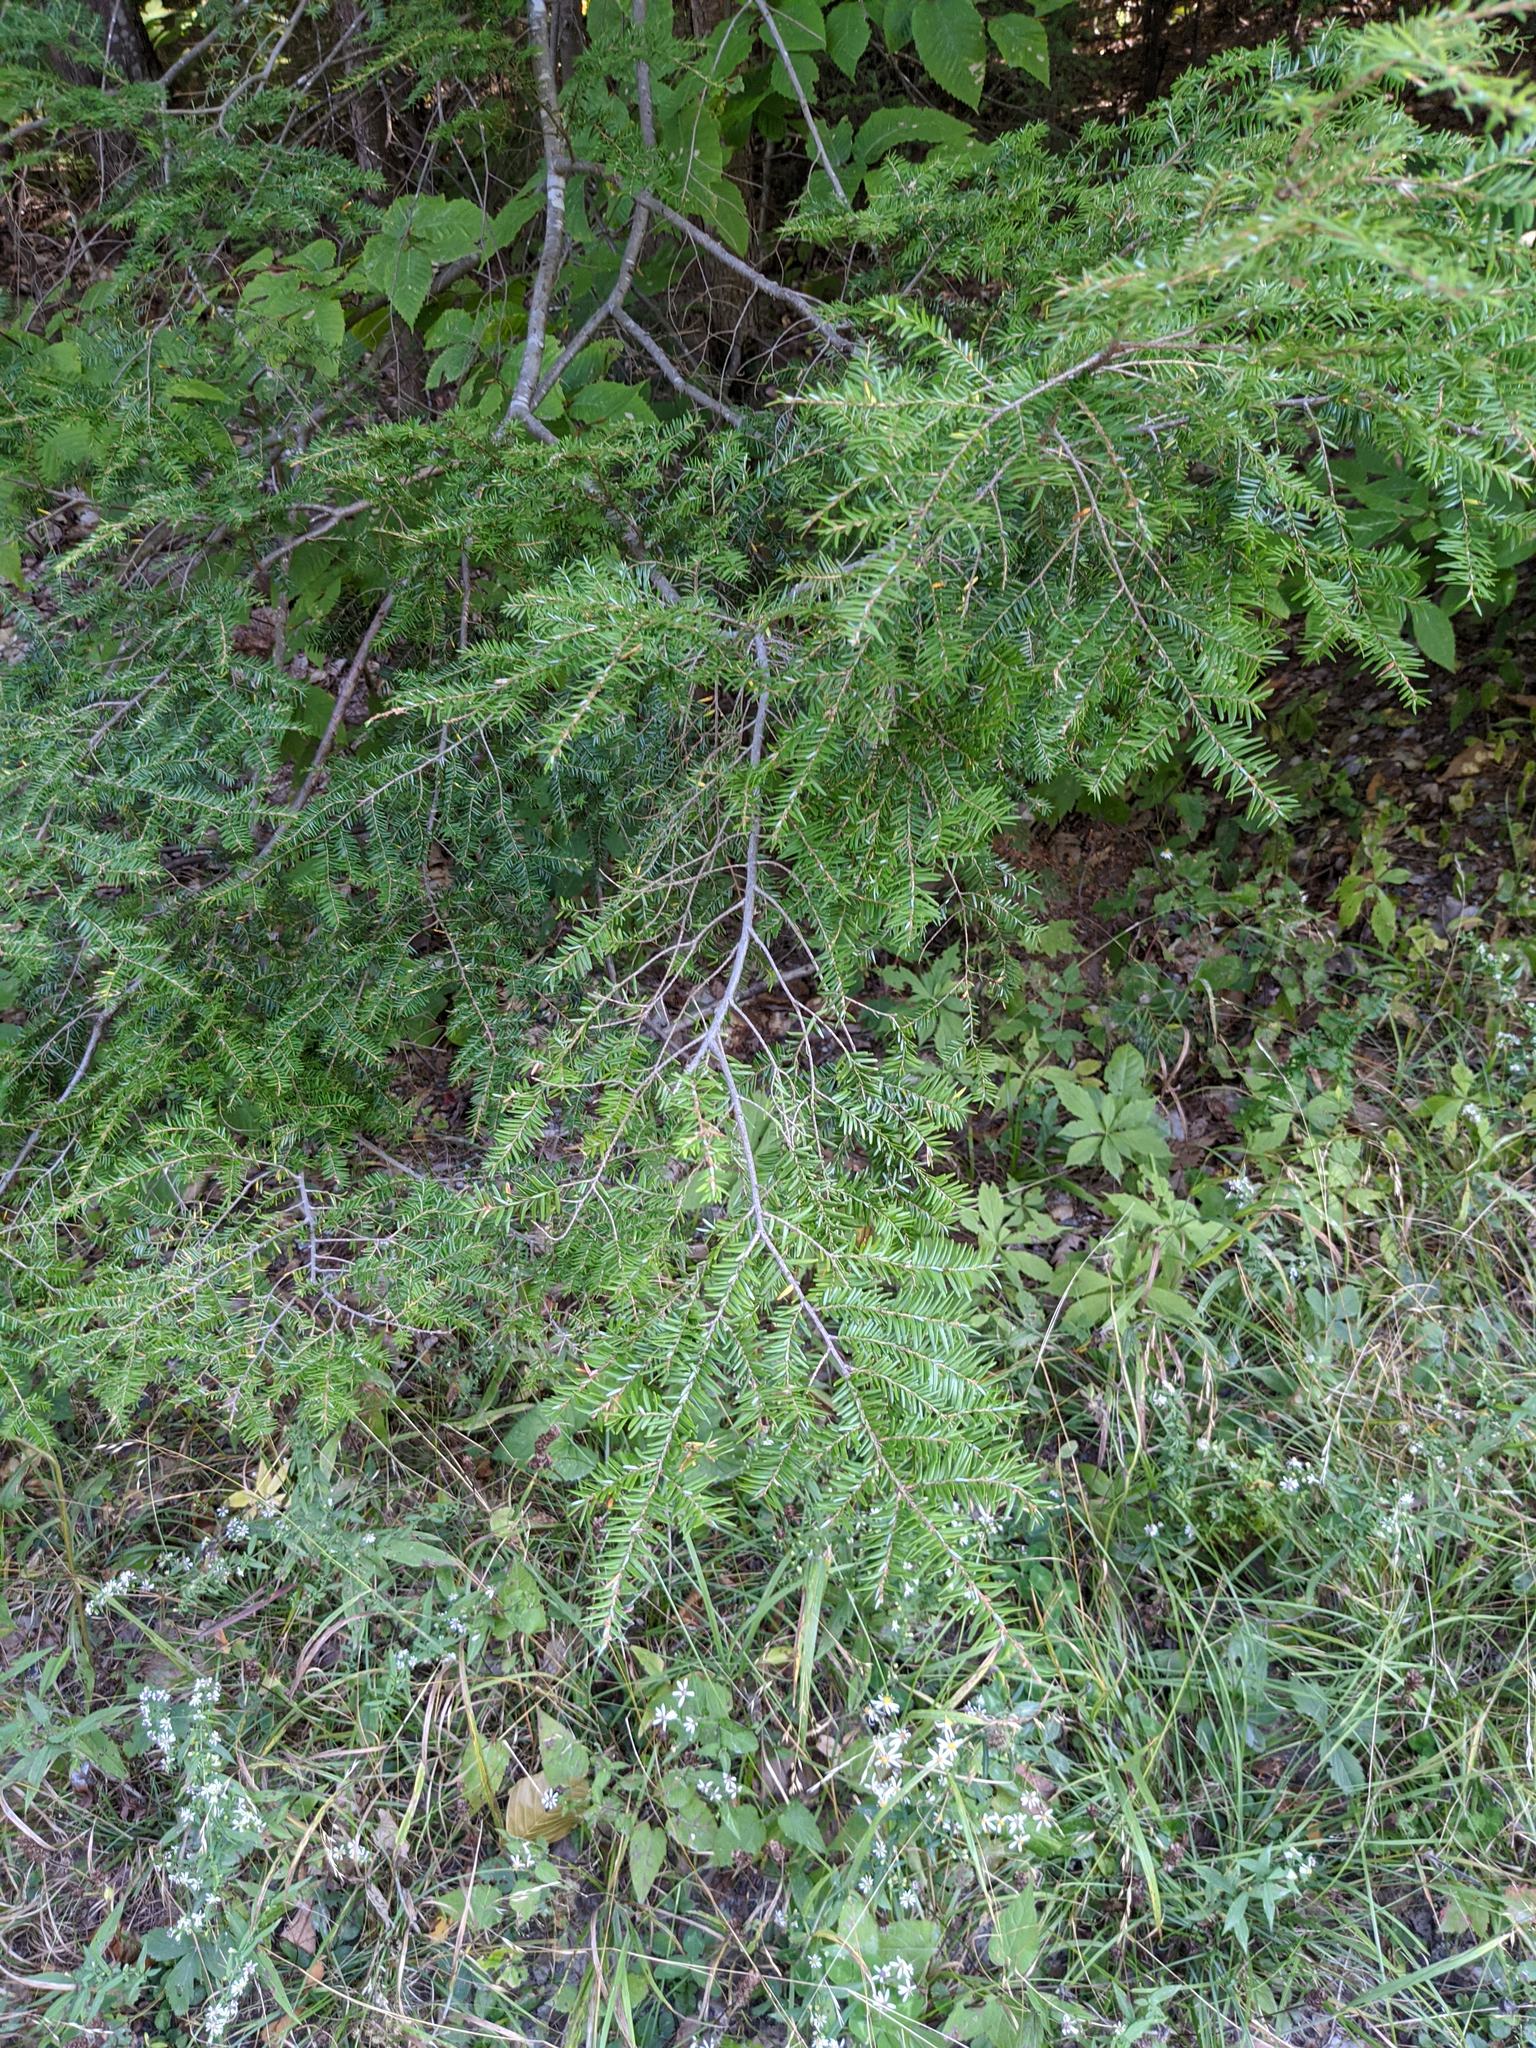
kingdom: Plantae
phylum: Tracheophyta
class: Pinopsida
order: Pinales
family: Pinaceae
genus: Tsuga
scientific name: Tsuga canadensis
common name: Eastern hemlock
